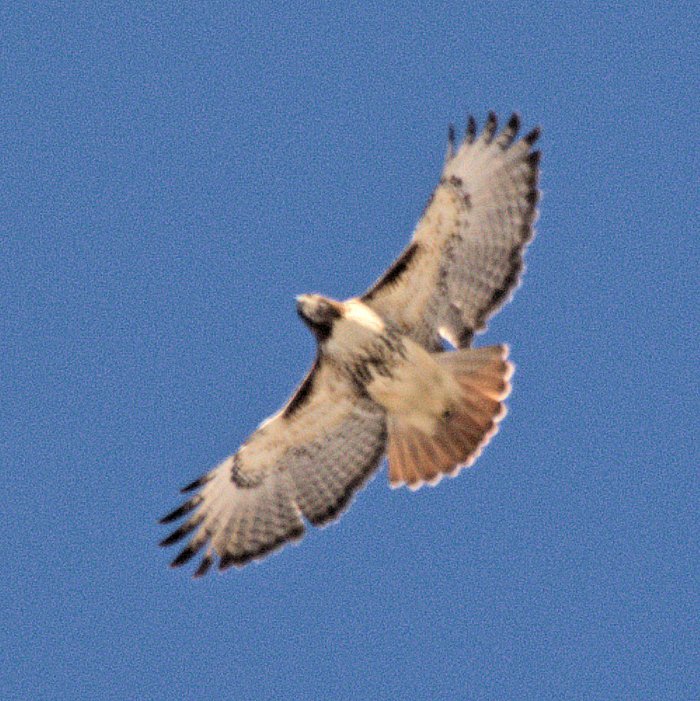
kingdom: Animalia
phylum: Chordata
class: Aves
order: Accipitriformes
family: Accipitridae
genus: Buteo
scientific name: Buteo jamaicensis
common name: Red-tailed hawk
